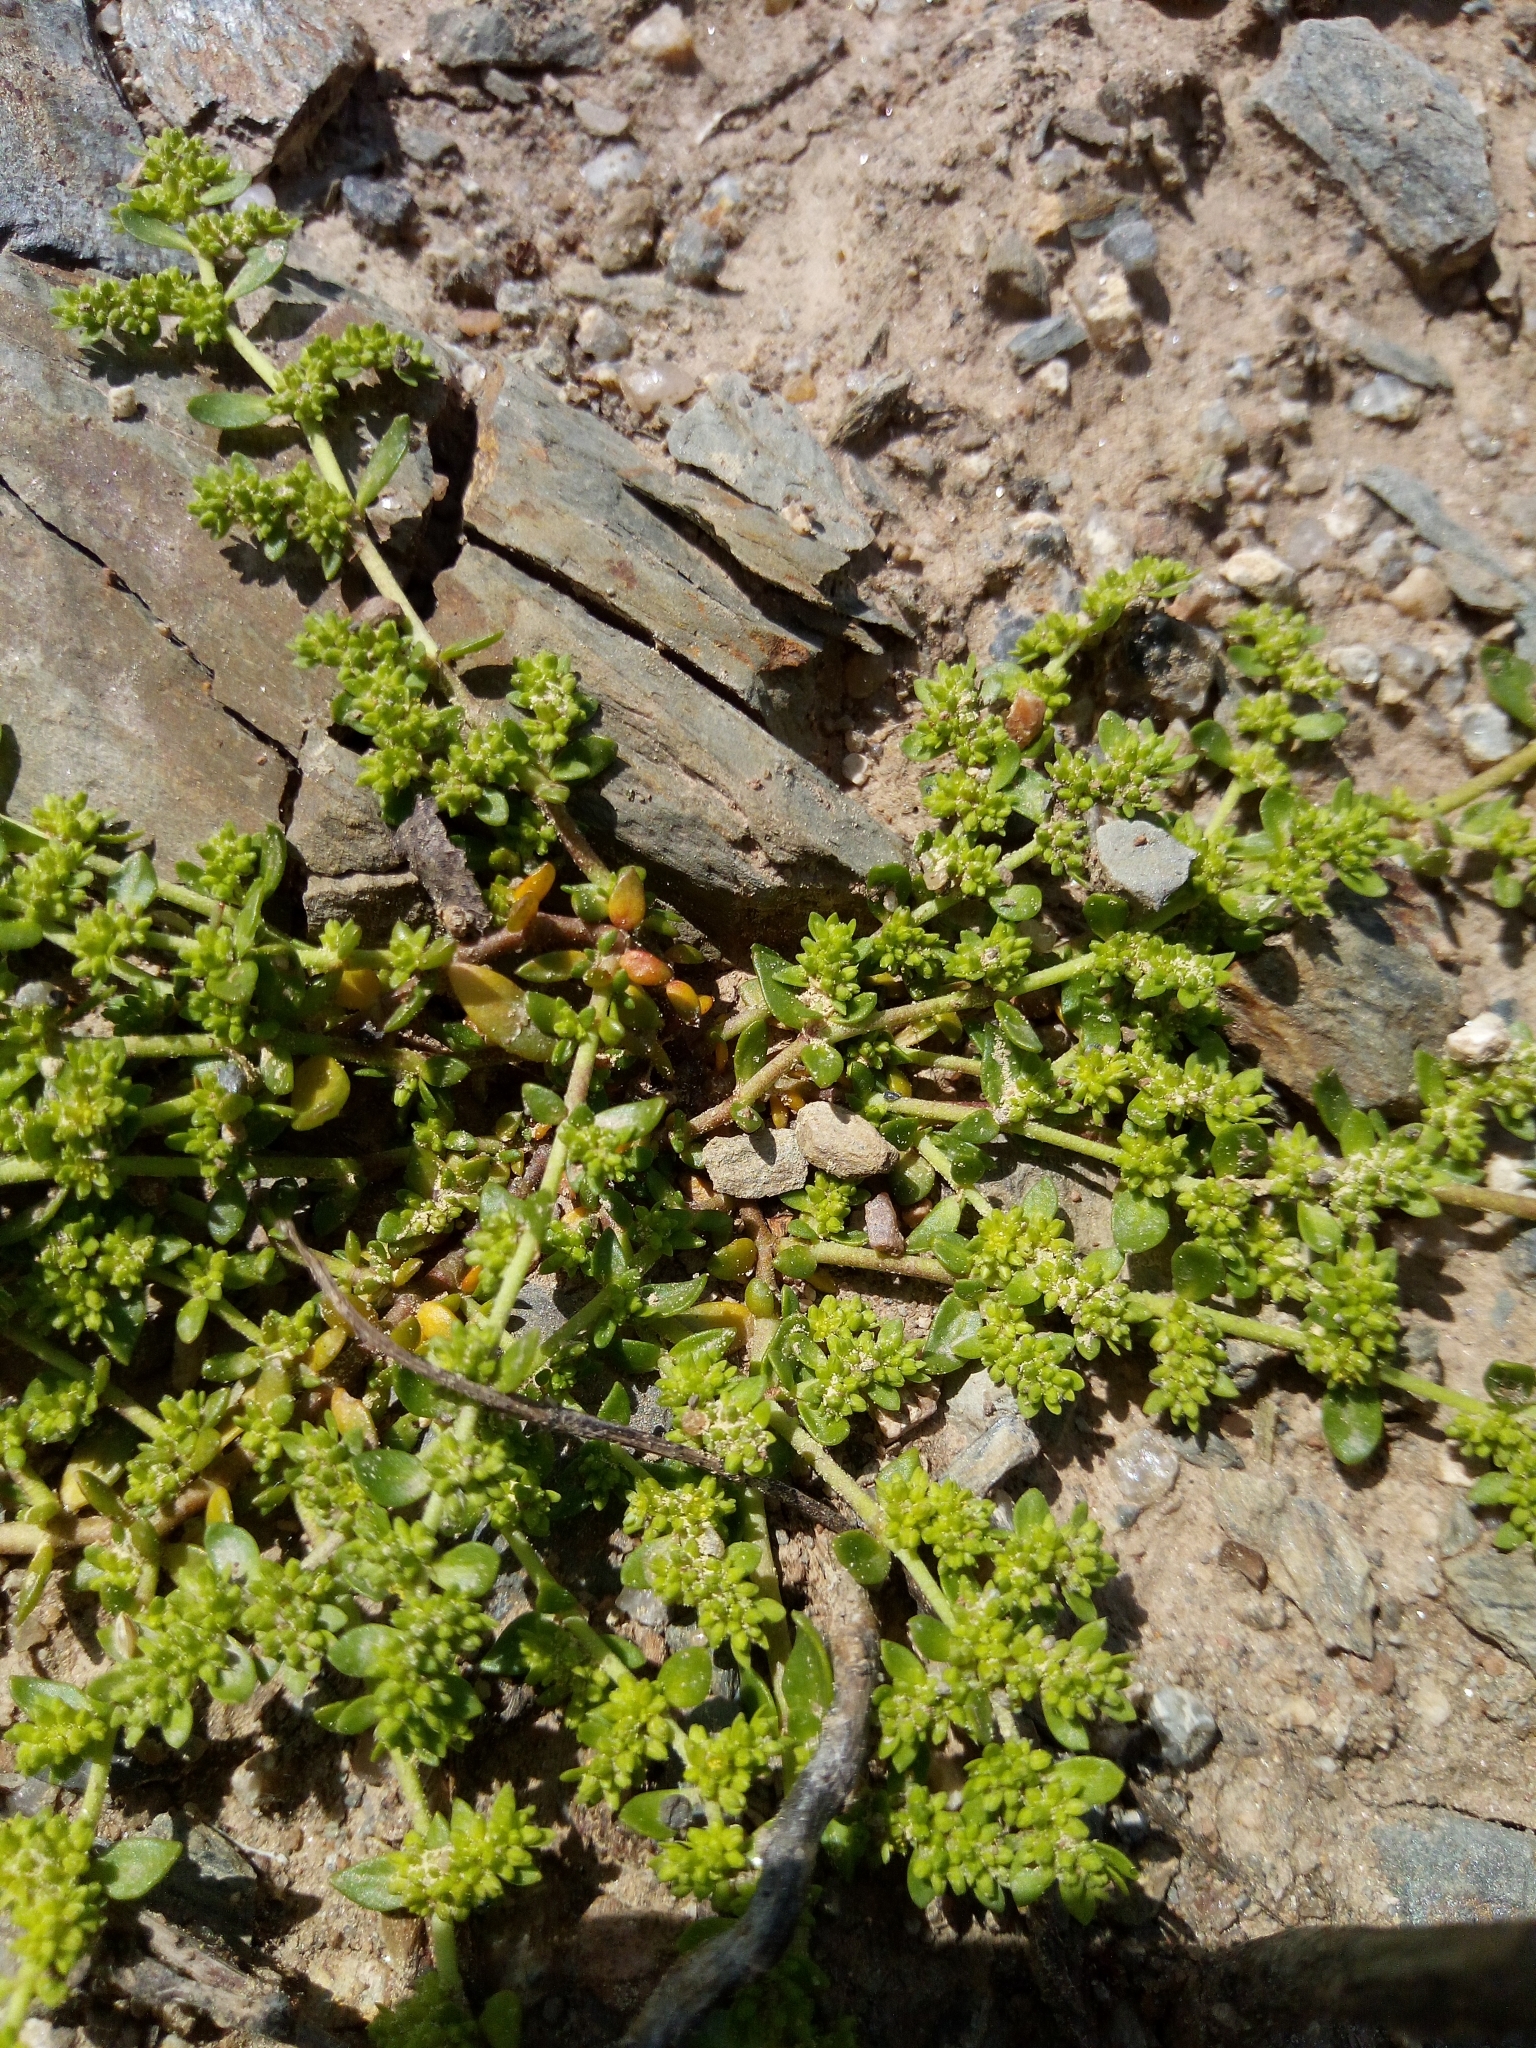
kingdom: Plantae
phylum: Tracheophyta
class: Magnoliopsida
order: Caryophyllales
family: Caryophyllaceae
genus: Herniaria
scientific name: Herniaria glabra
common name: Smooth rupturewort
